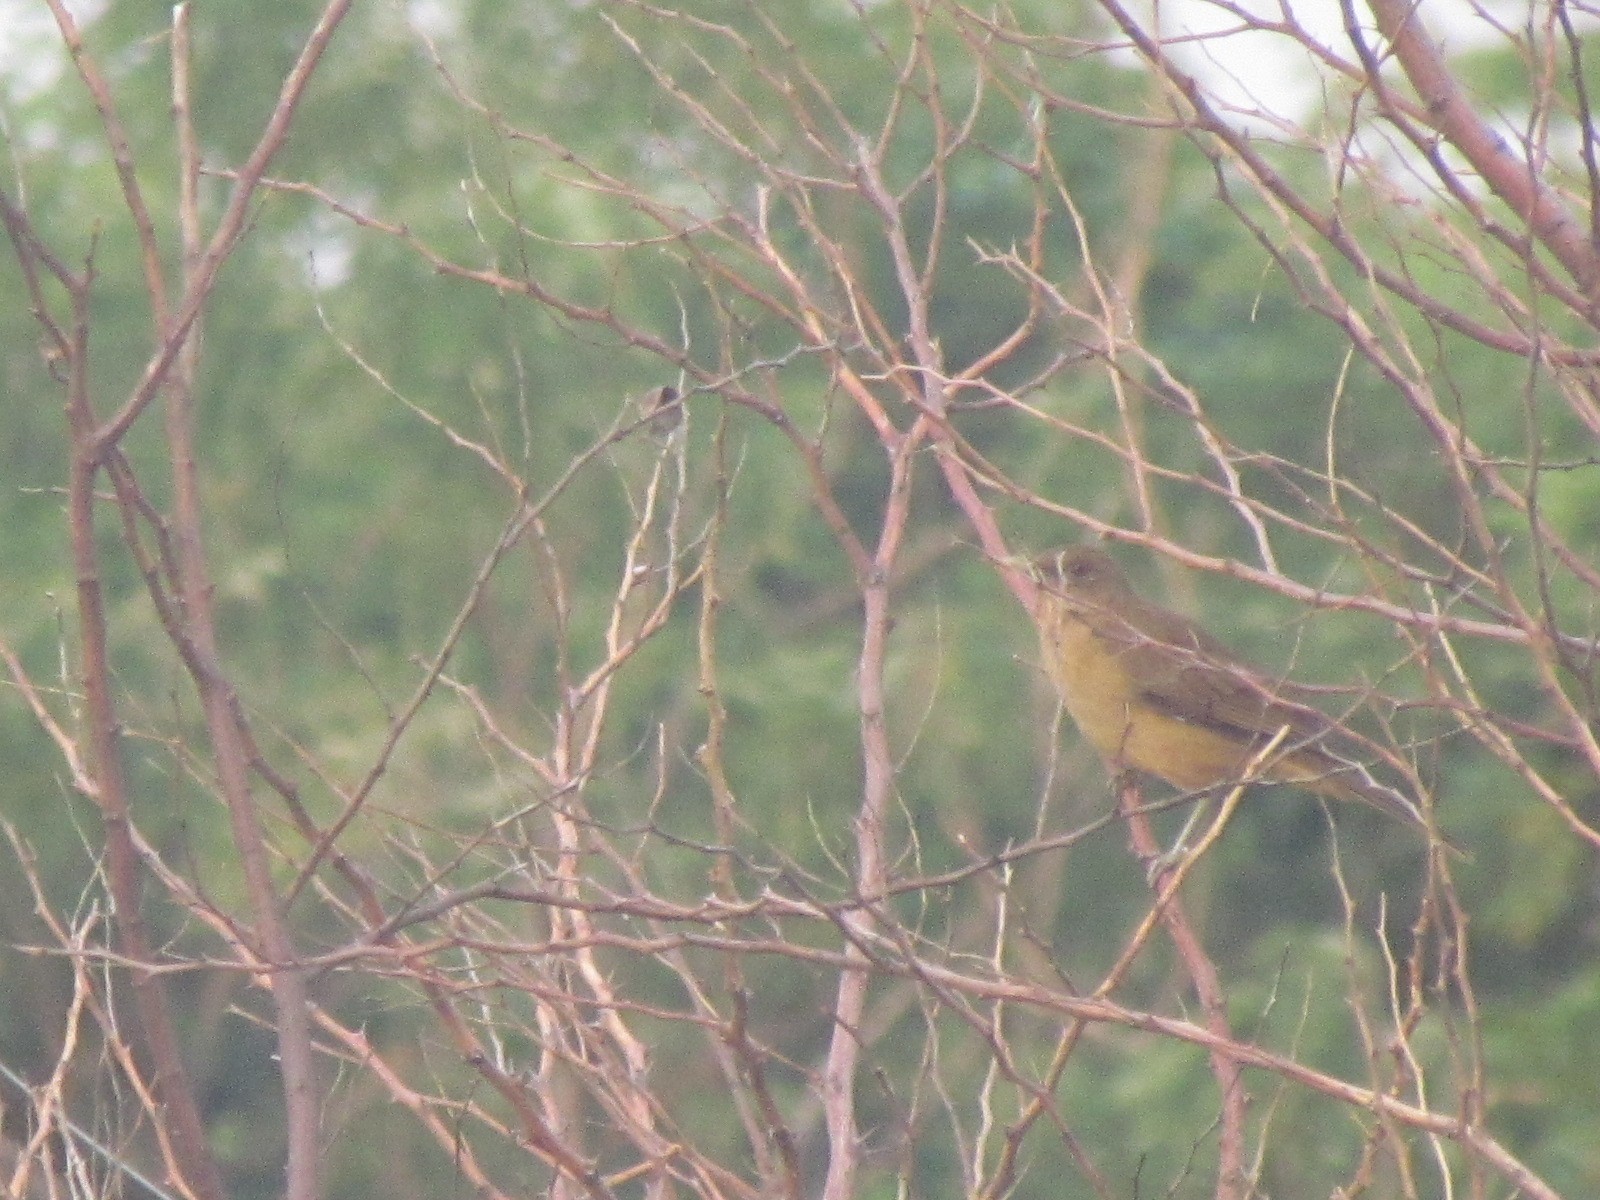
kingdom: Animalia
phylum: Chordata
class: Aves
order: Passeriformes
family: Turdidae
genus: Turdus
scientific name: Turdus grayi
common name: Clay-colored thrush
